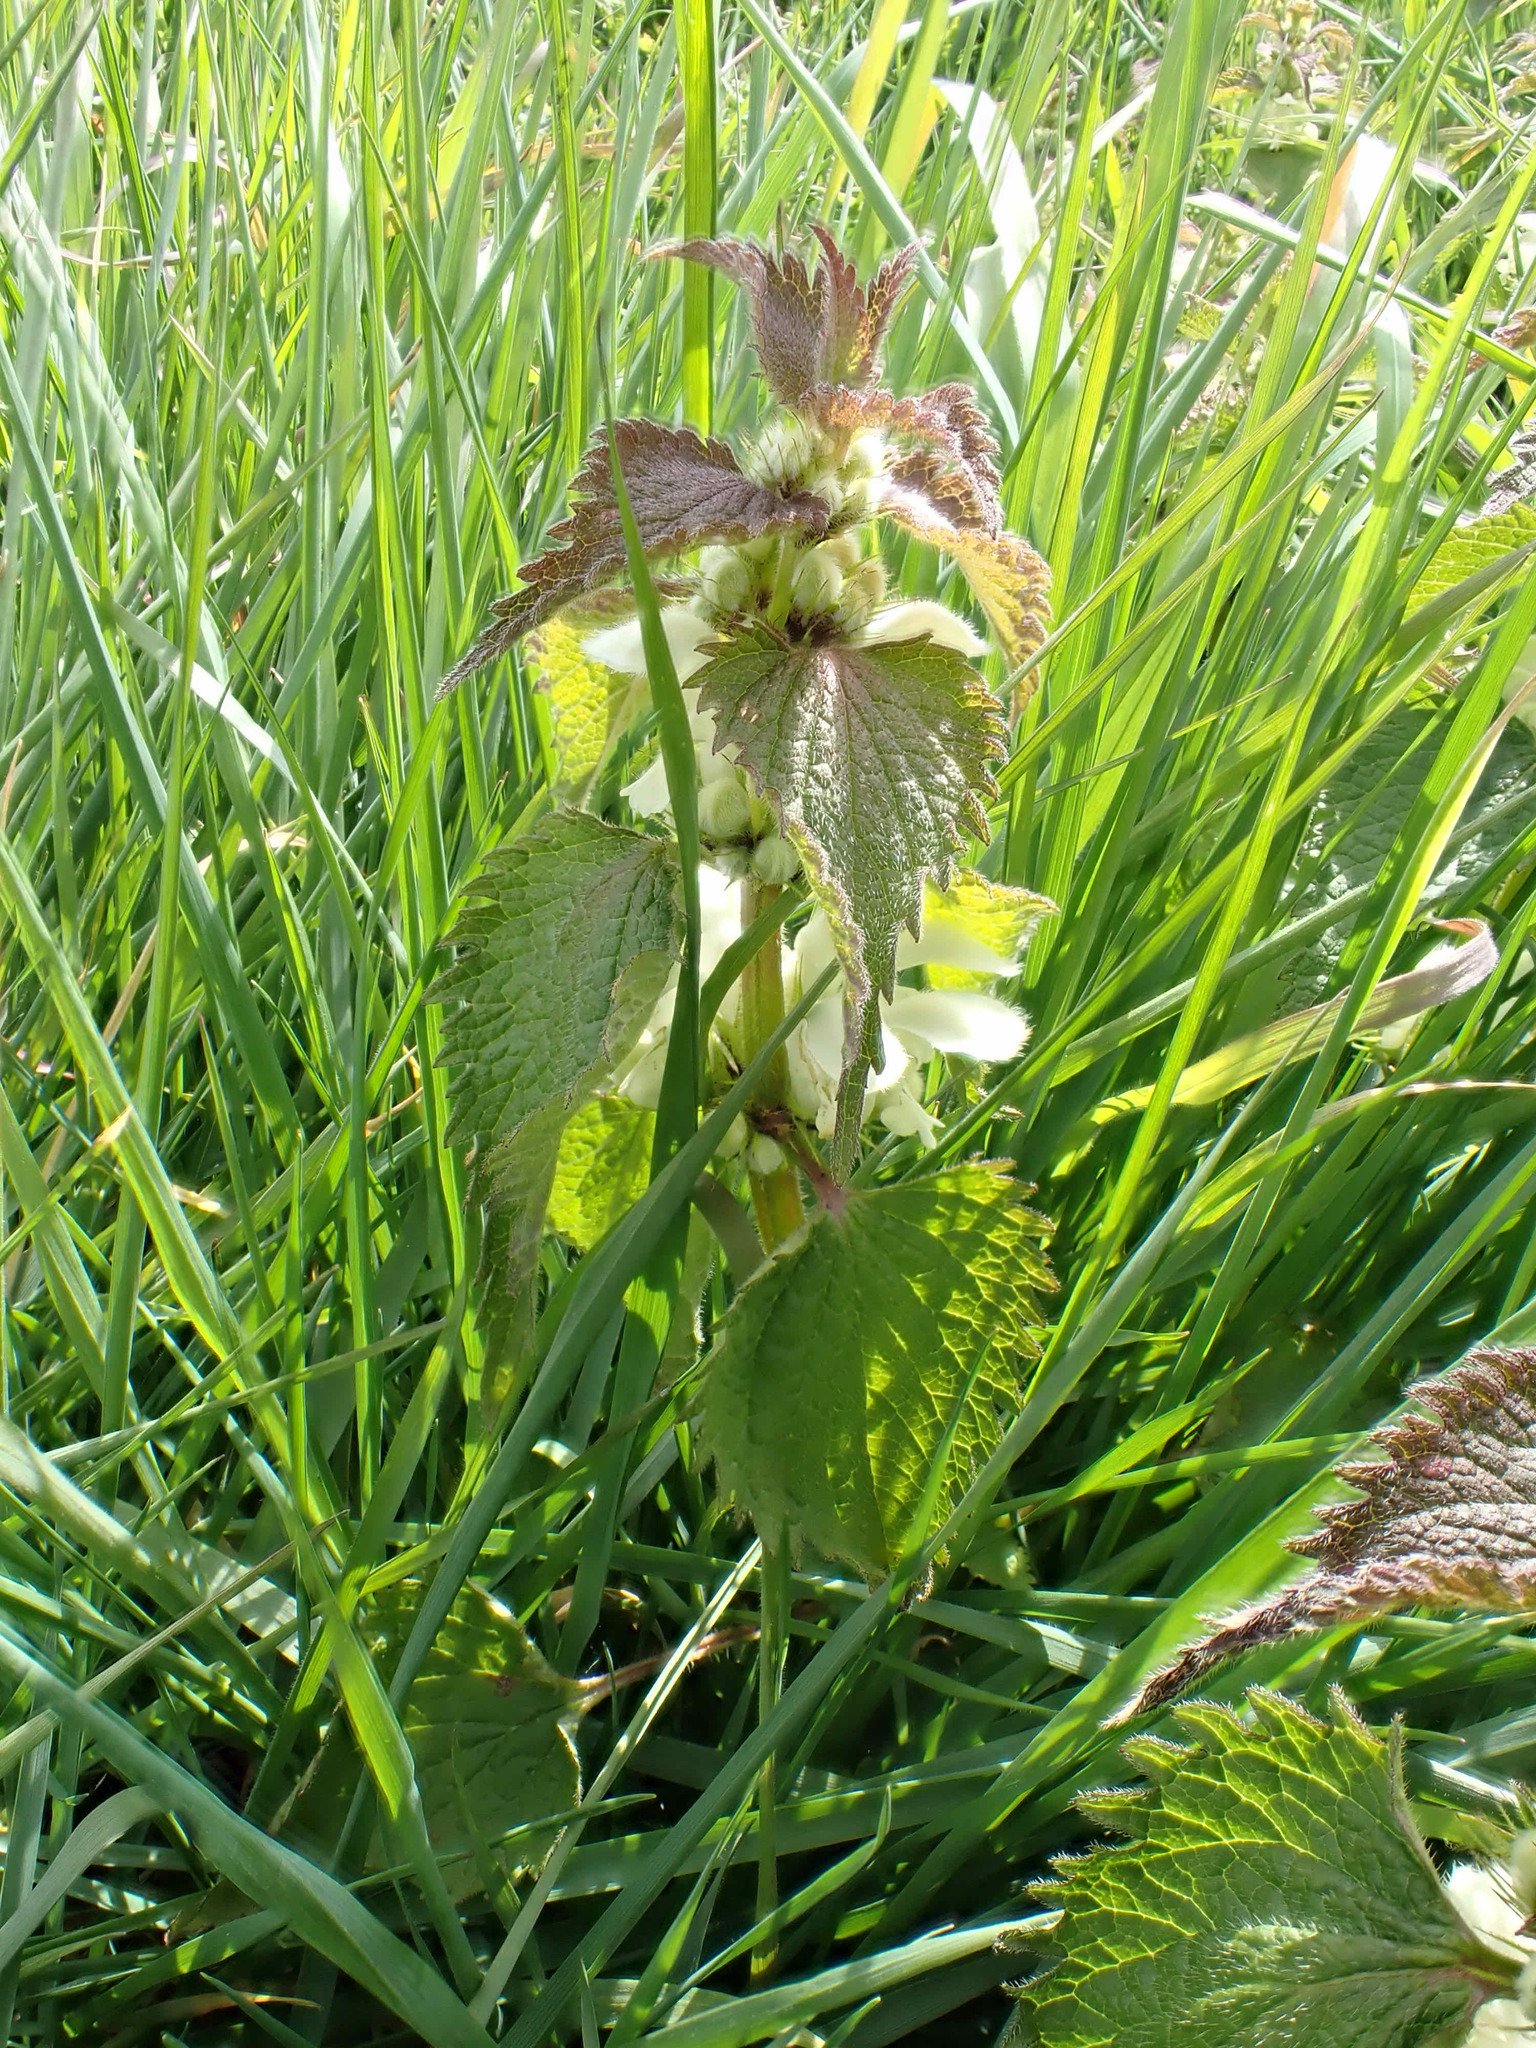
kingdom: Plantae
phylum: Tracheophyta
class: Magnoliopsida
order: Lamiales
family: Lamiaceae
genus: Lamium
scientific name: Lamium album
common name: White dead-nettle
